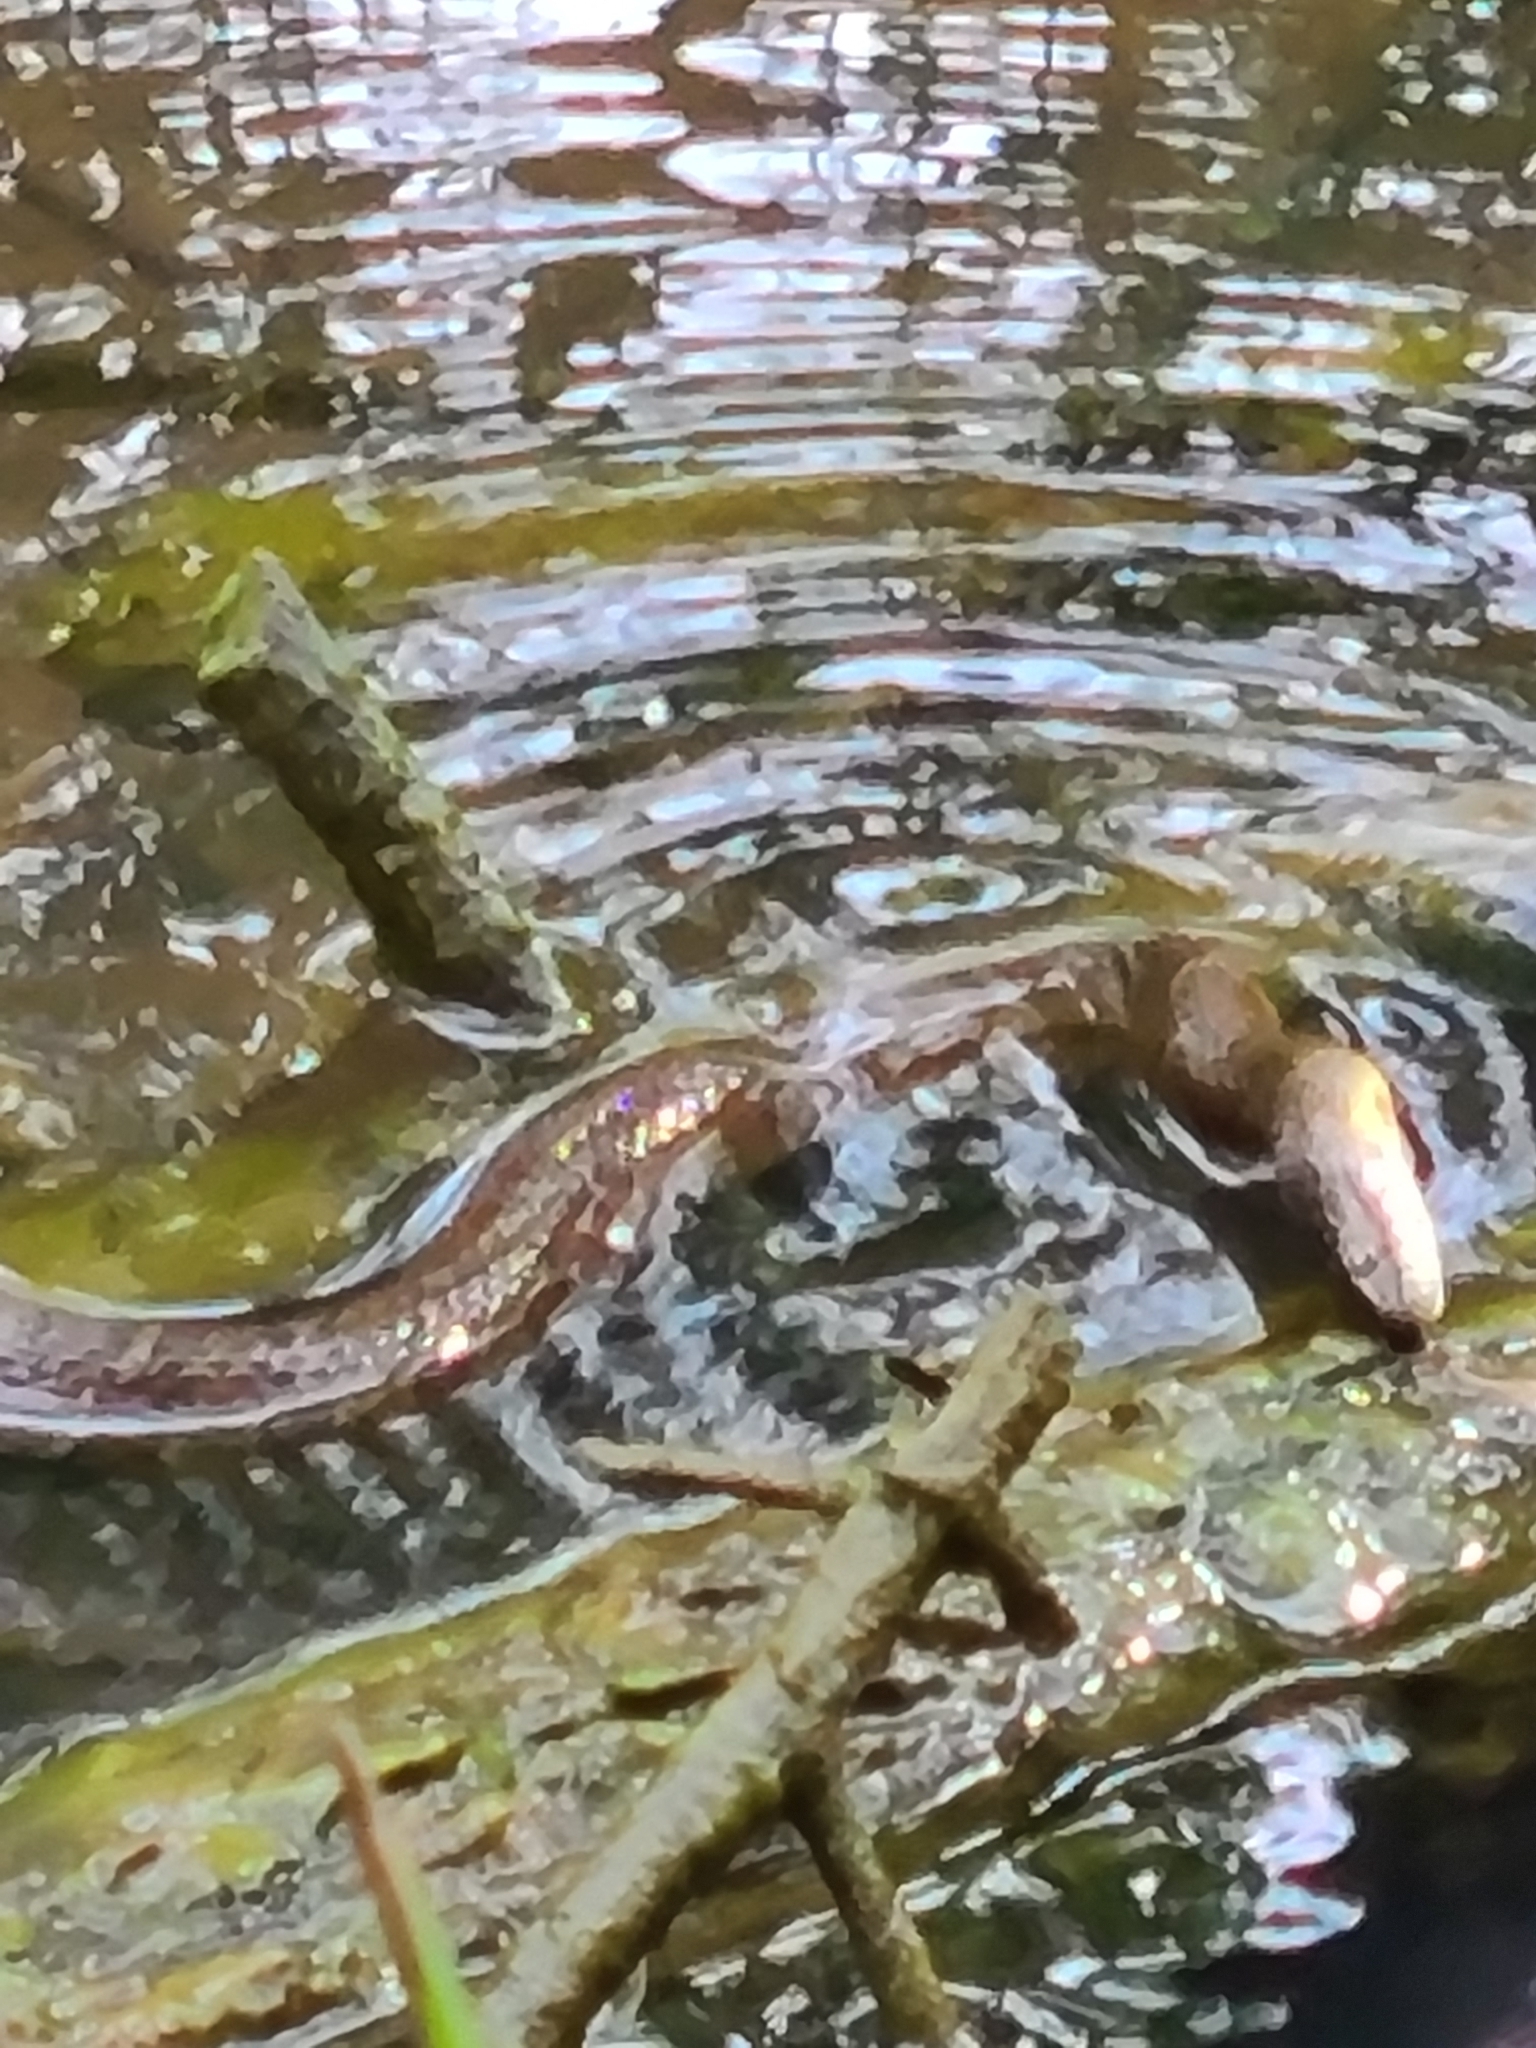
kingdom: Animalia
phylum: Chordata
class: Squamata
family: Colubridae
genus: Nerodia
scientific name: Nerodia sipedon
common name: Northern water snake
